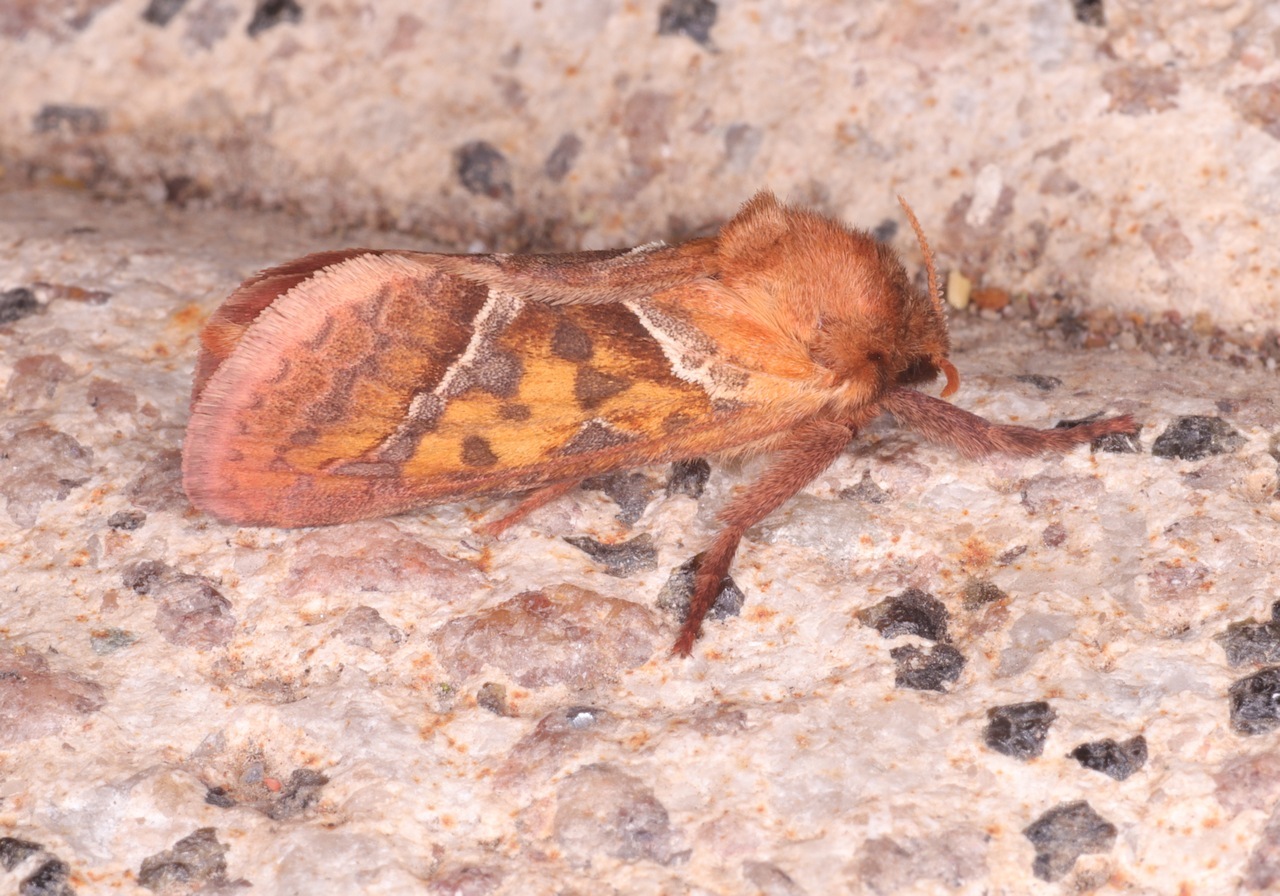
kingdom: Animalia
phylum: Arthropoda
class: Insecta
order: Lepidoptera
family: Hepialidae
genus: Triodia
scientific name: Triodia sylvina
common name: Orange swift
